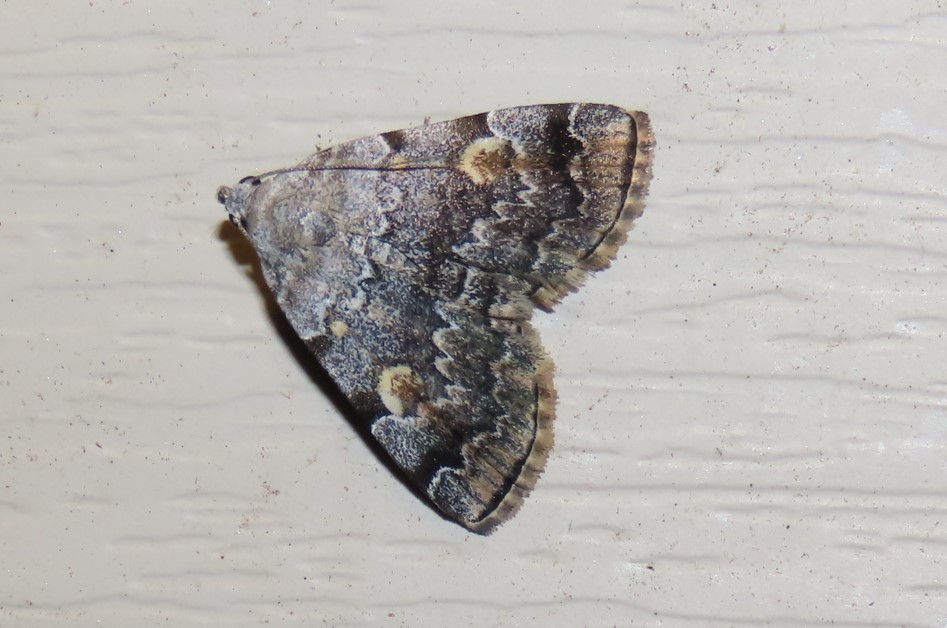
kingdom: Animalia
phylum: Arthropoda
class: Insecta
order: Lepidoptera
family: Erebidae
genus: Idia
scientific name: Idia americalis
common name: American idia moth
